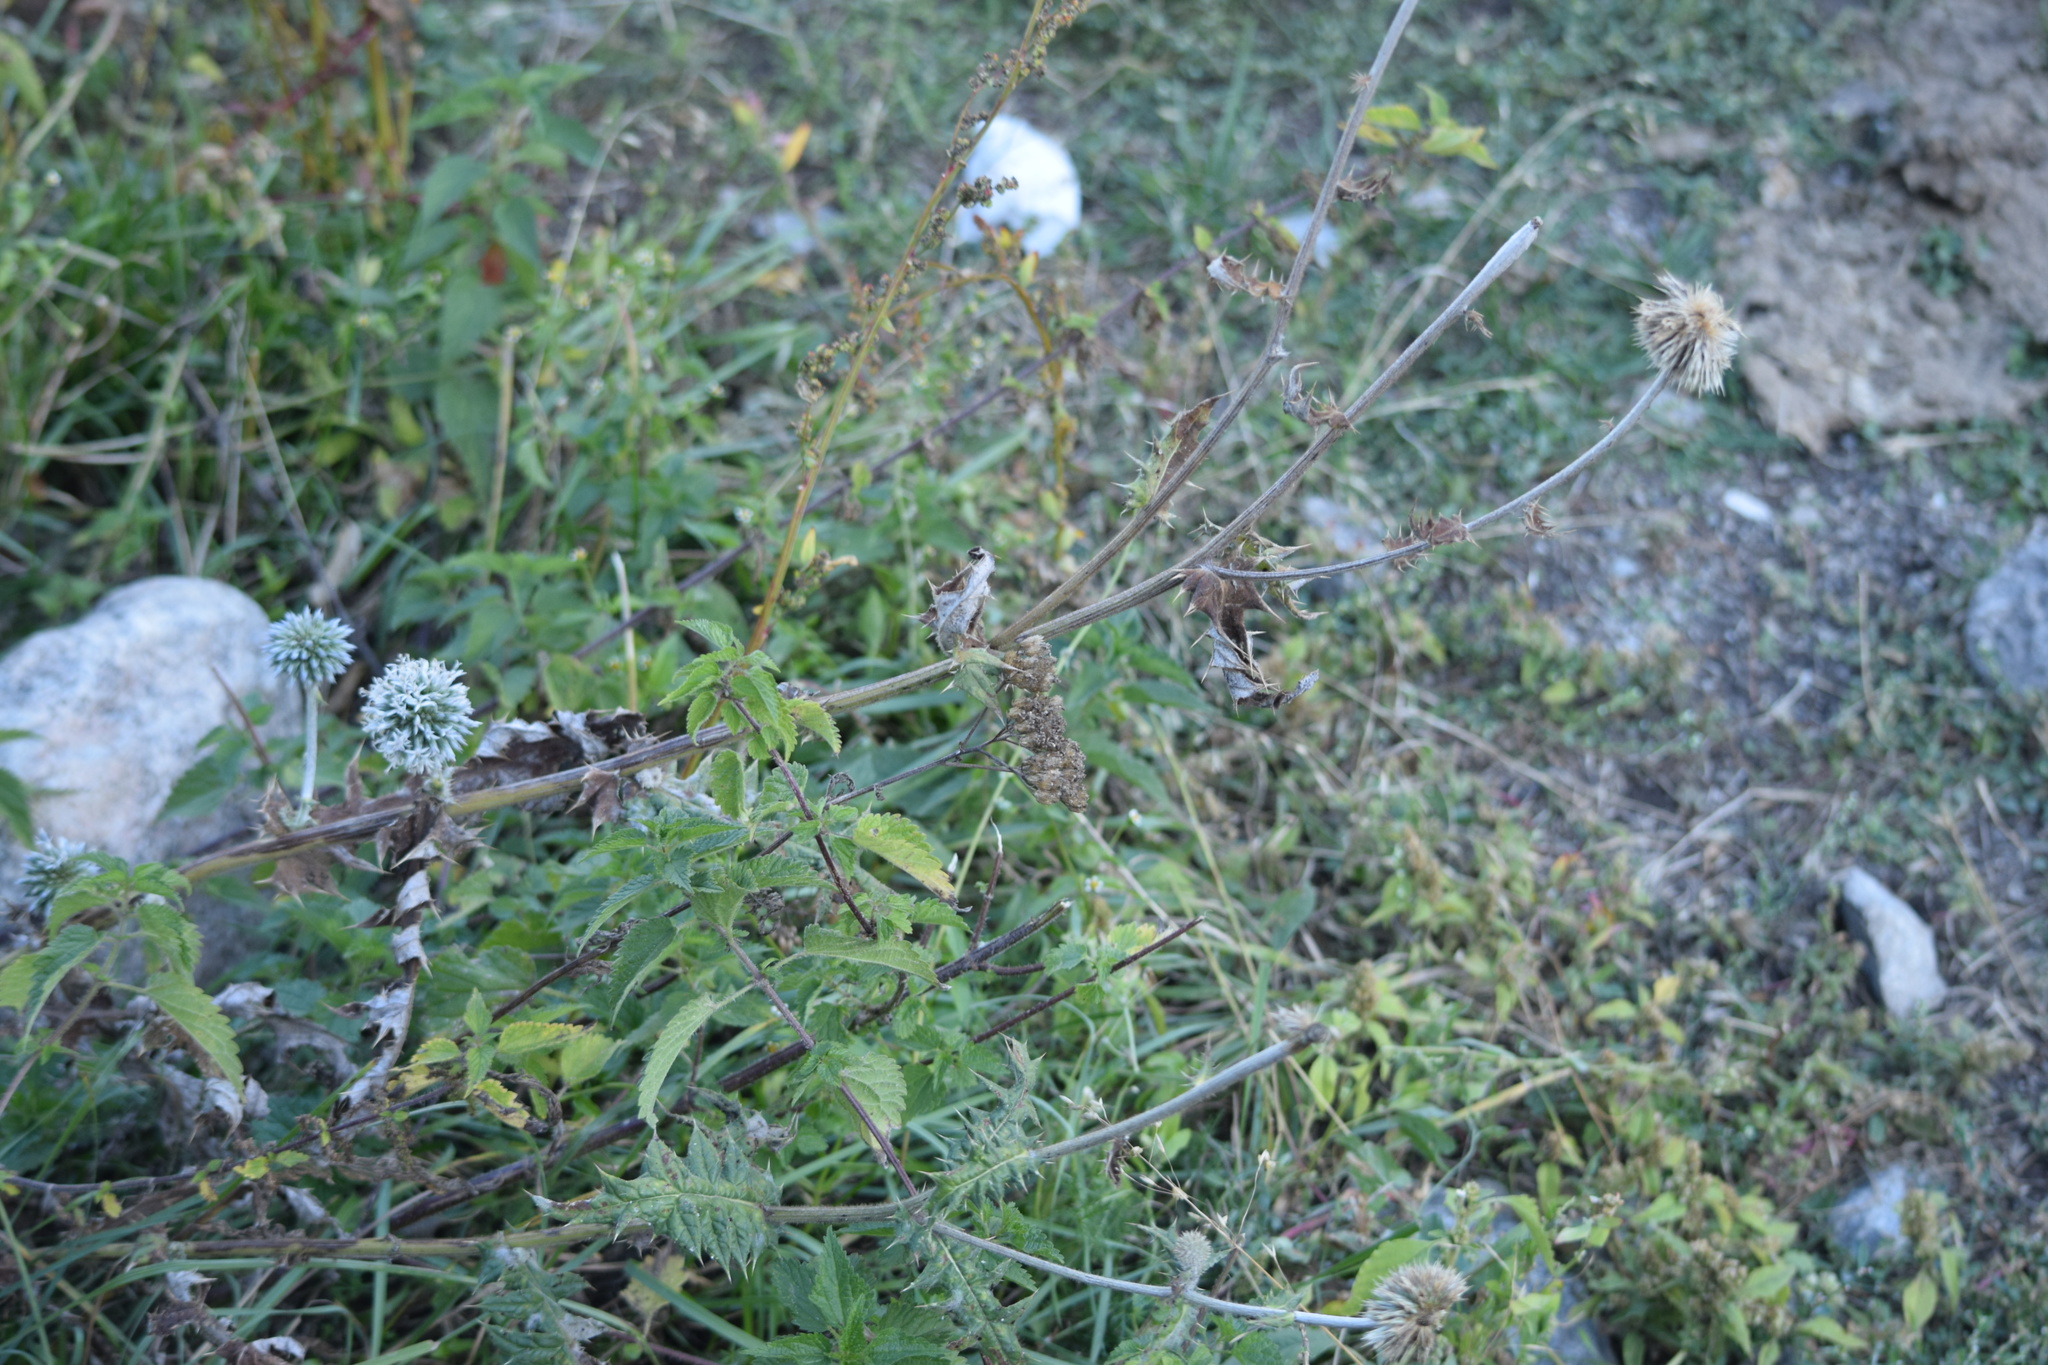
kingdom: Plantae
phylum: Tracheophyta
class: Magnoliopsida
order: Asterales
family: Asteraceae
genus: Echinops
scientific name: Echinops sphaerocephalus
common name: Glandular globe-thistle
